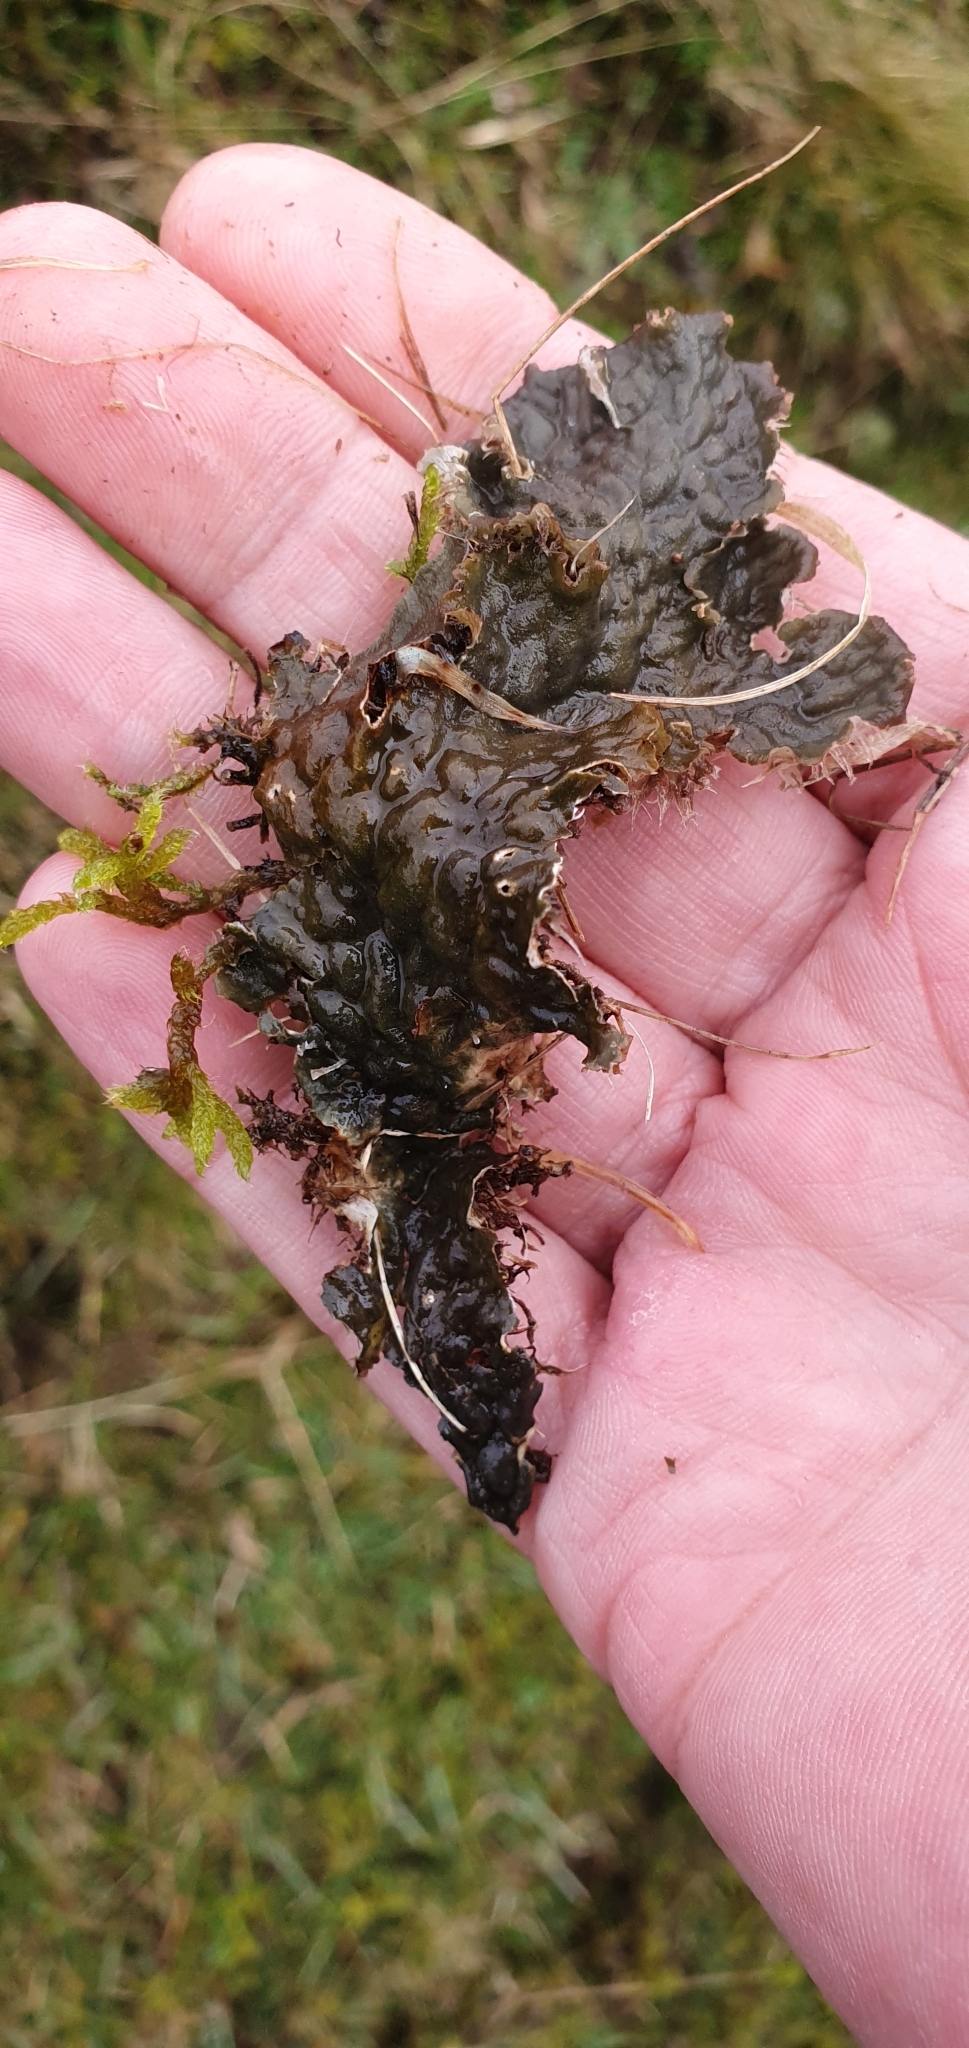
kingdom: Fungi
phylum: Ascomycota
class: Lecanoromycetes
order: Peltigerales
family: Peltigeraceae
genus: Peltigera
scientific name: Peltigera membranacea
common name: Membranous pelt lichen
